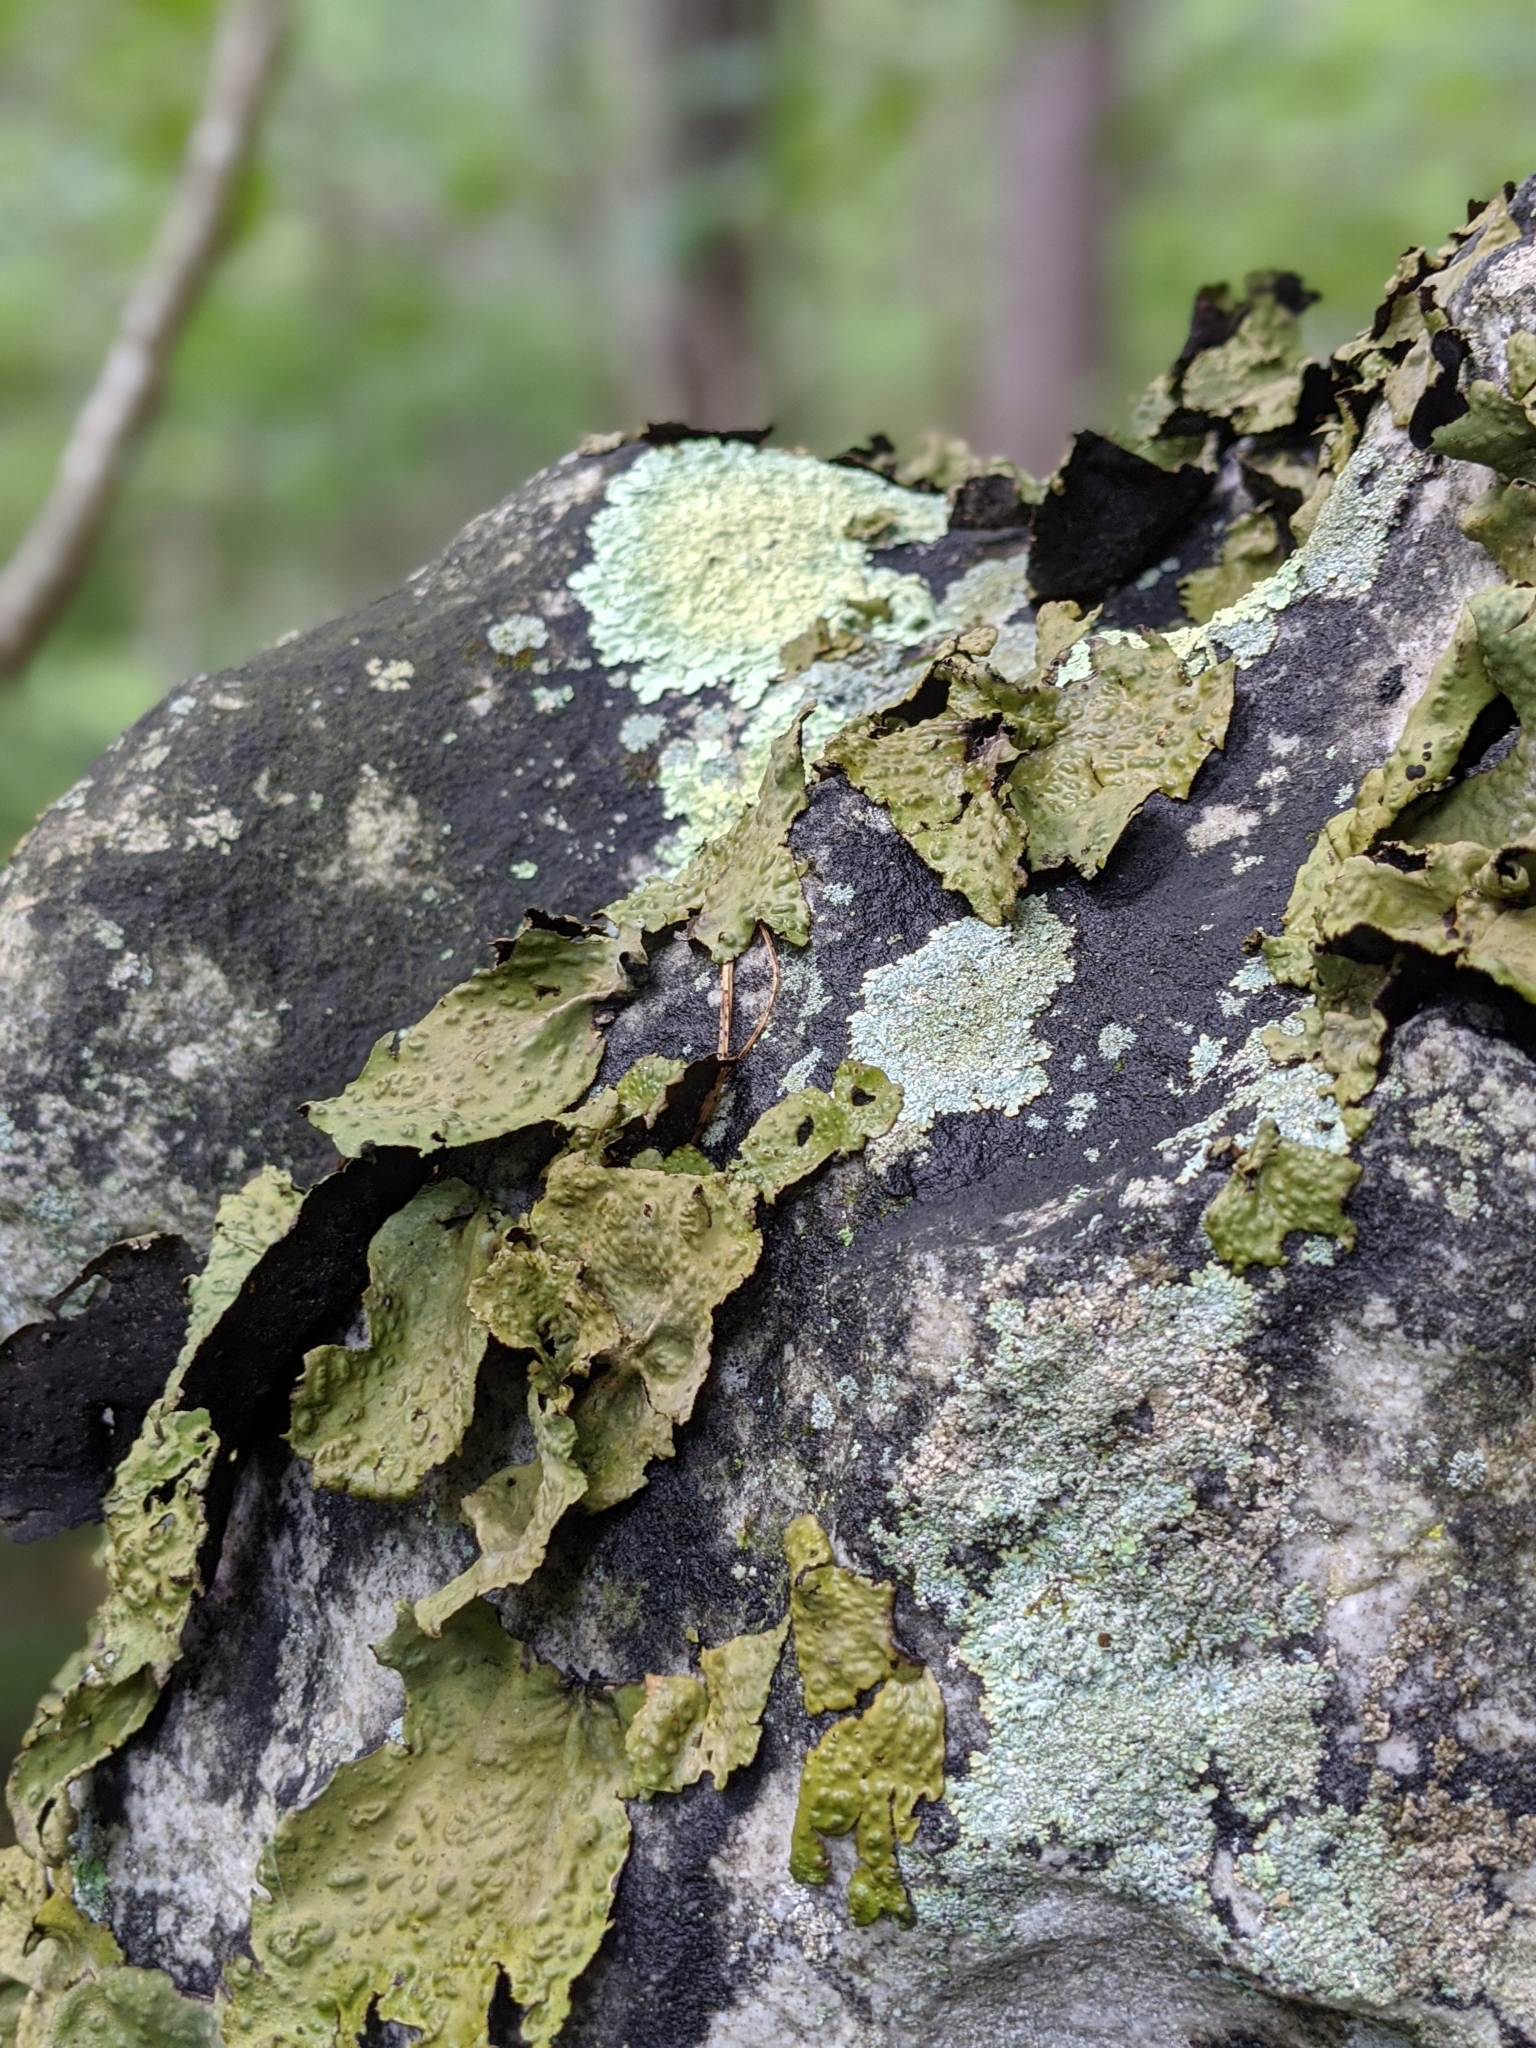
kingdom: Fungi
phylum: Ascomycota
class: Lecanoromycetes
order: Umbilicariales
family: Umbilicariaceae
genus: Lasallia
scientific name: Lasallia papulosa
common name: Common toadskin lichen
